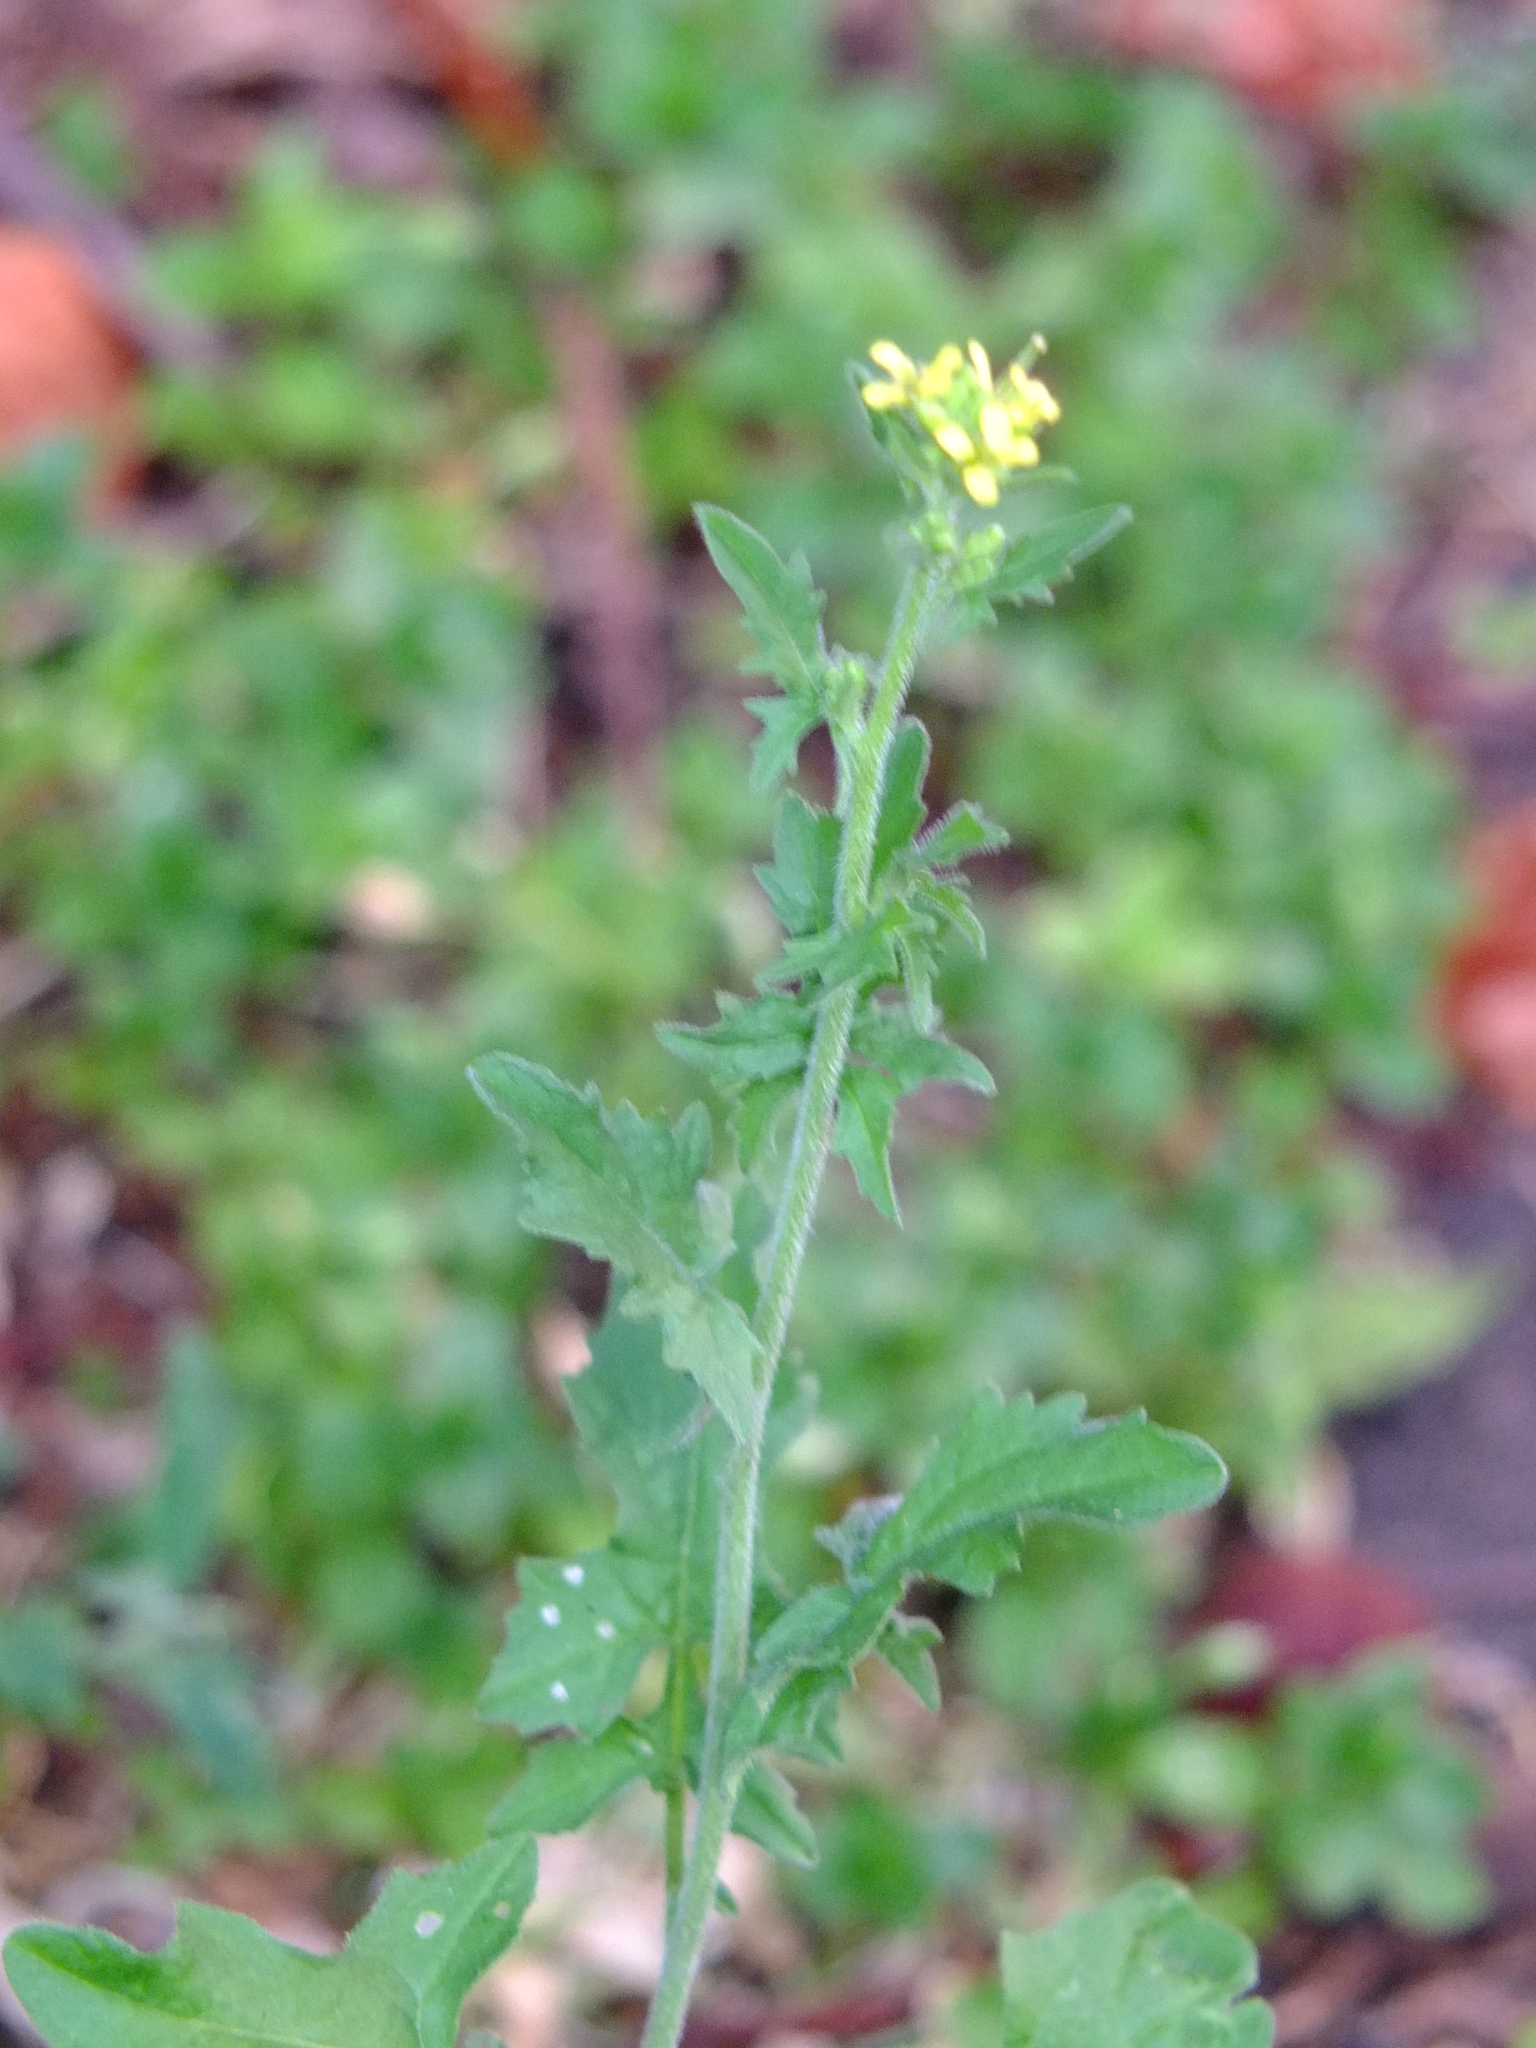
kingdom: Plantae
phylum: Tracheophyta
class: Magnoliopsida
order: Brassicales
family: Brassicaceae
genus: Sisymbrium
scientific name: Sisymbrium officinale
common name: Hedge mustard
